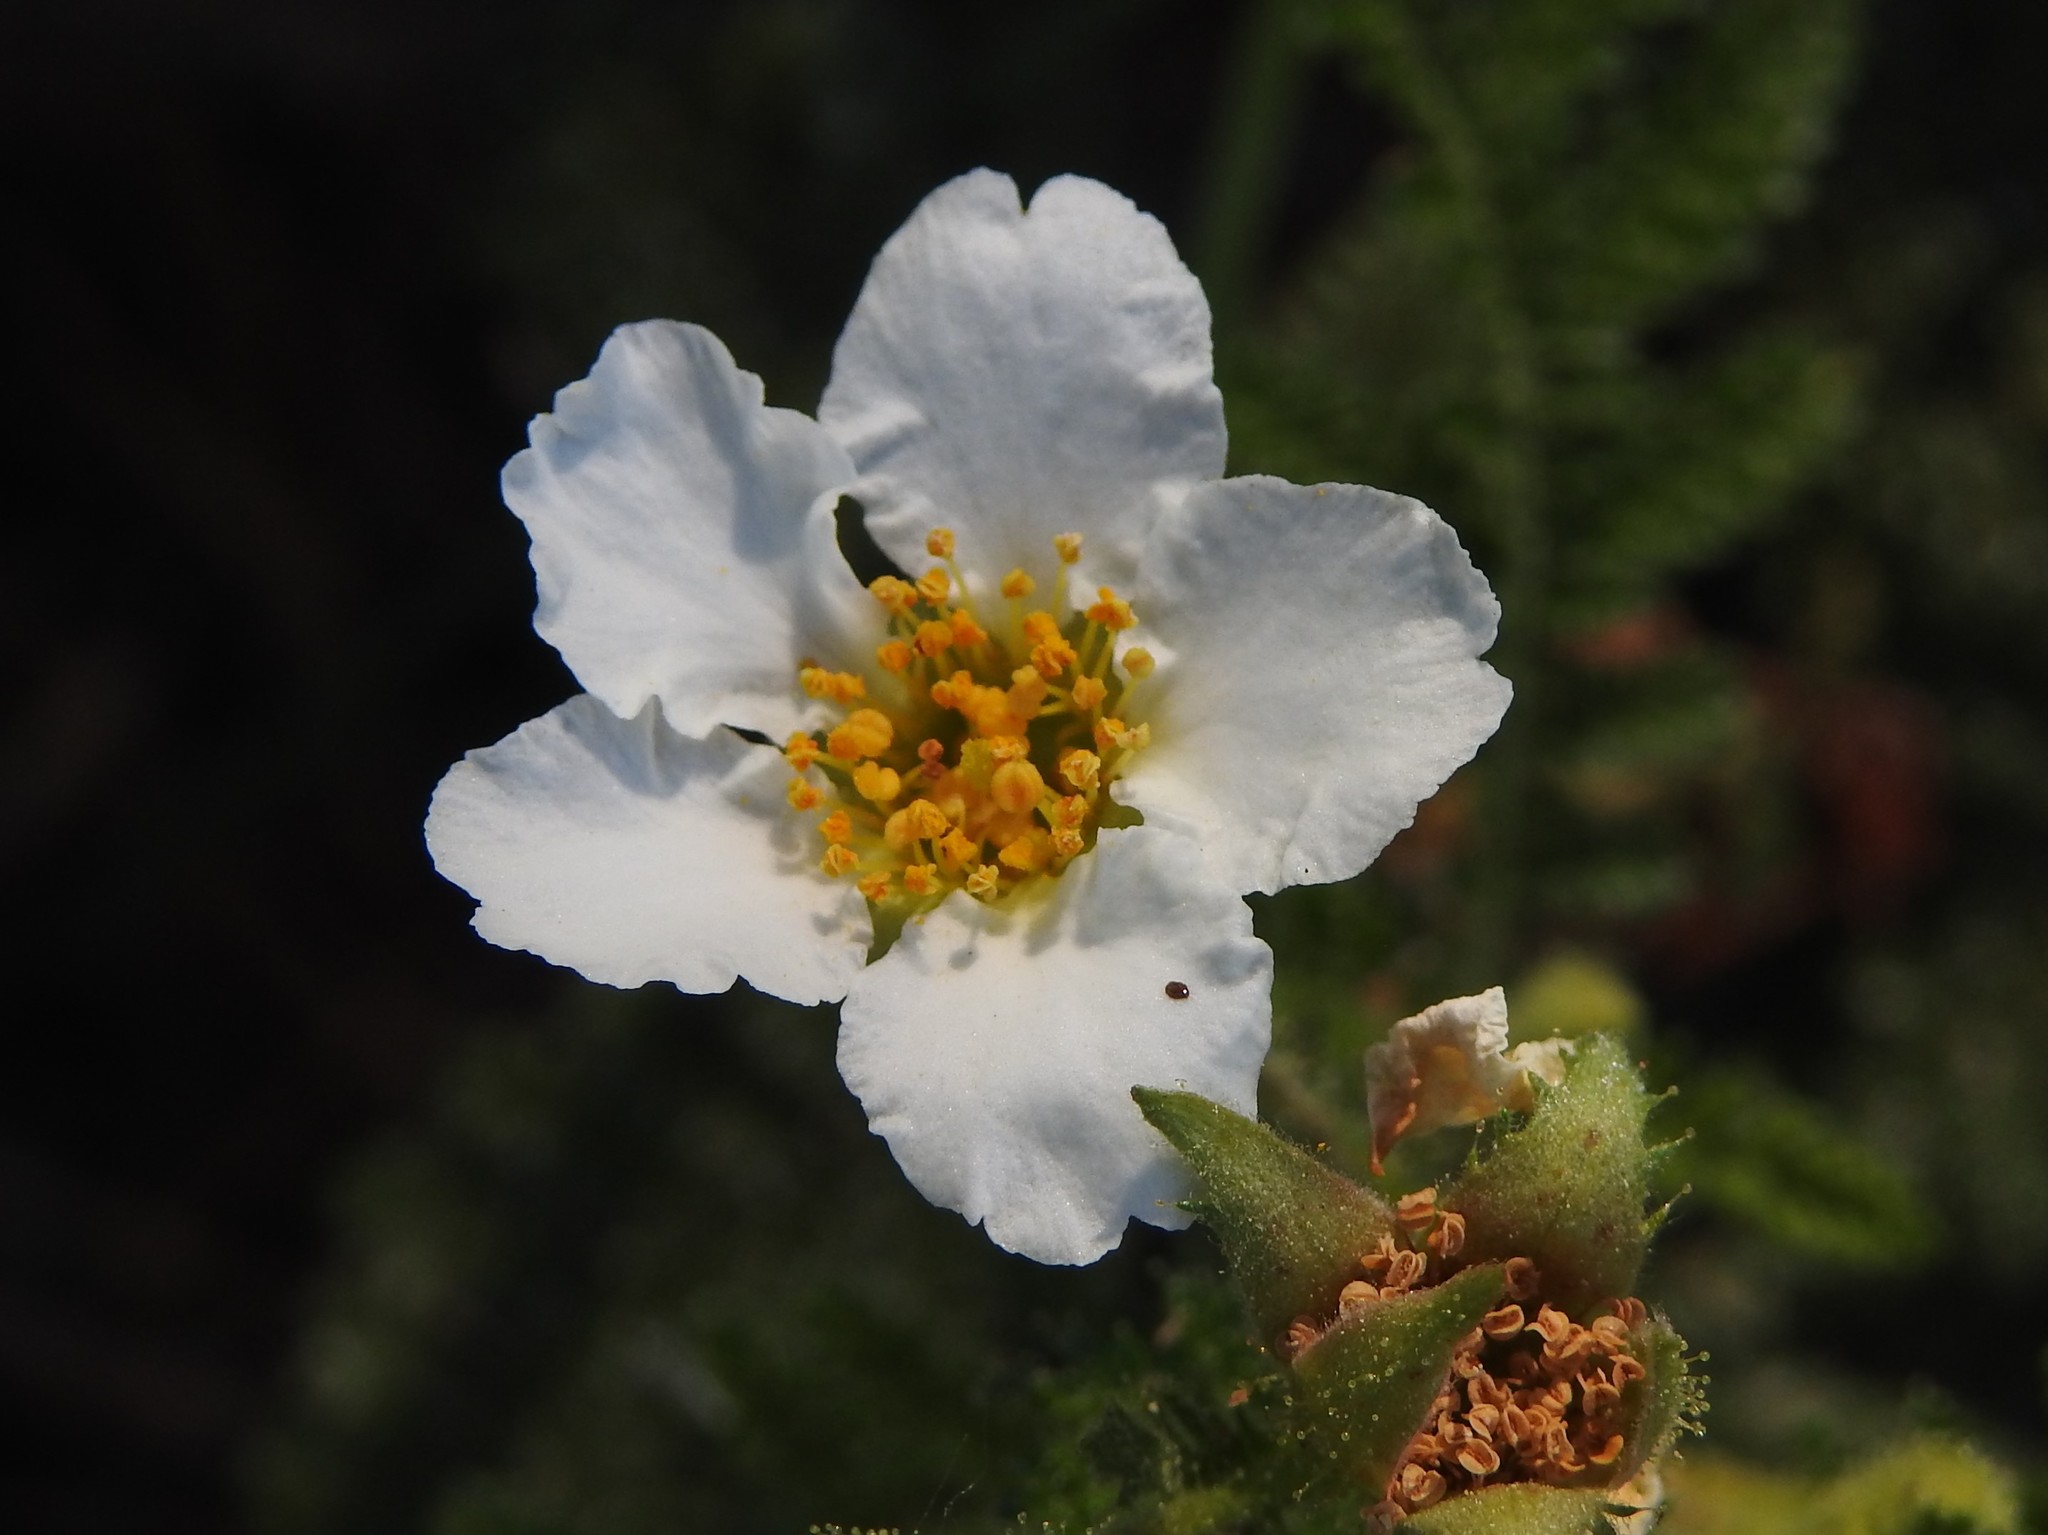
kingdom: Plantae
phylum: Tracheophyta
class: Magnoliopsida
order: Rosales
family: Rosaceae
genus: Chamaebatia
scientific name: Chamaebatia foliolosa
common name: Mountain misery
